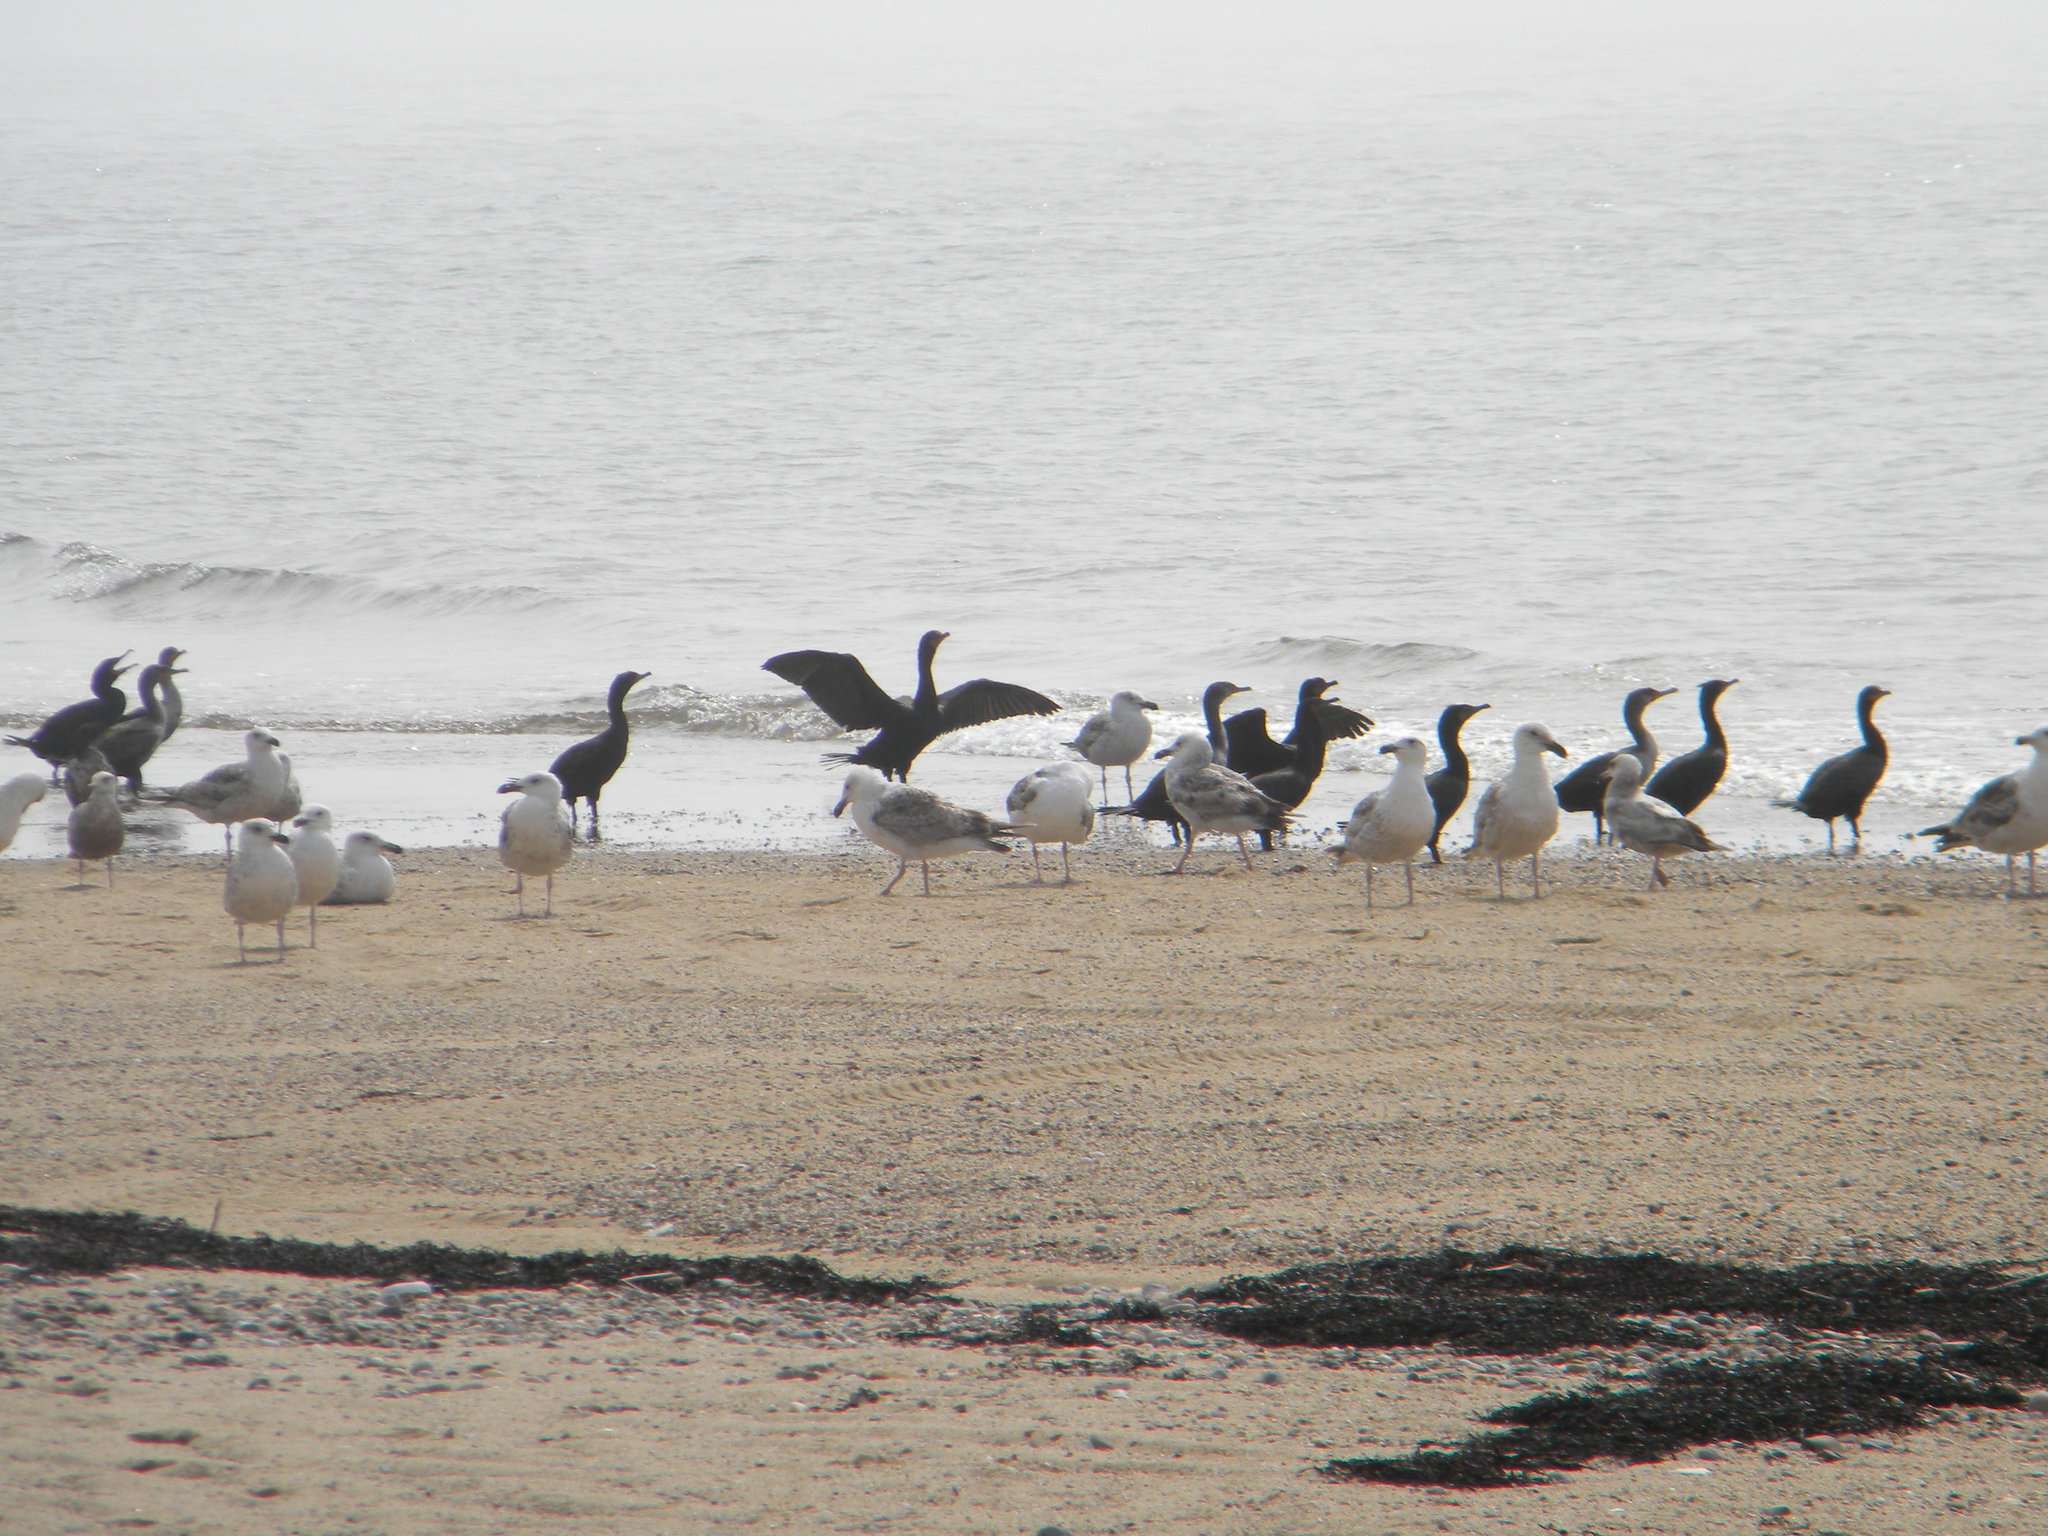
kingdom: Animalia
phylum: Chordata
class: Aves
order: Suliformes
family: Phalacrocoracidae
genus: Phalacrocorax
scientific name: Phalacrocorax auritus
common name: Double-crested cormorant
